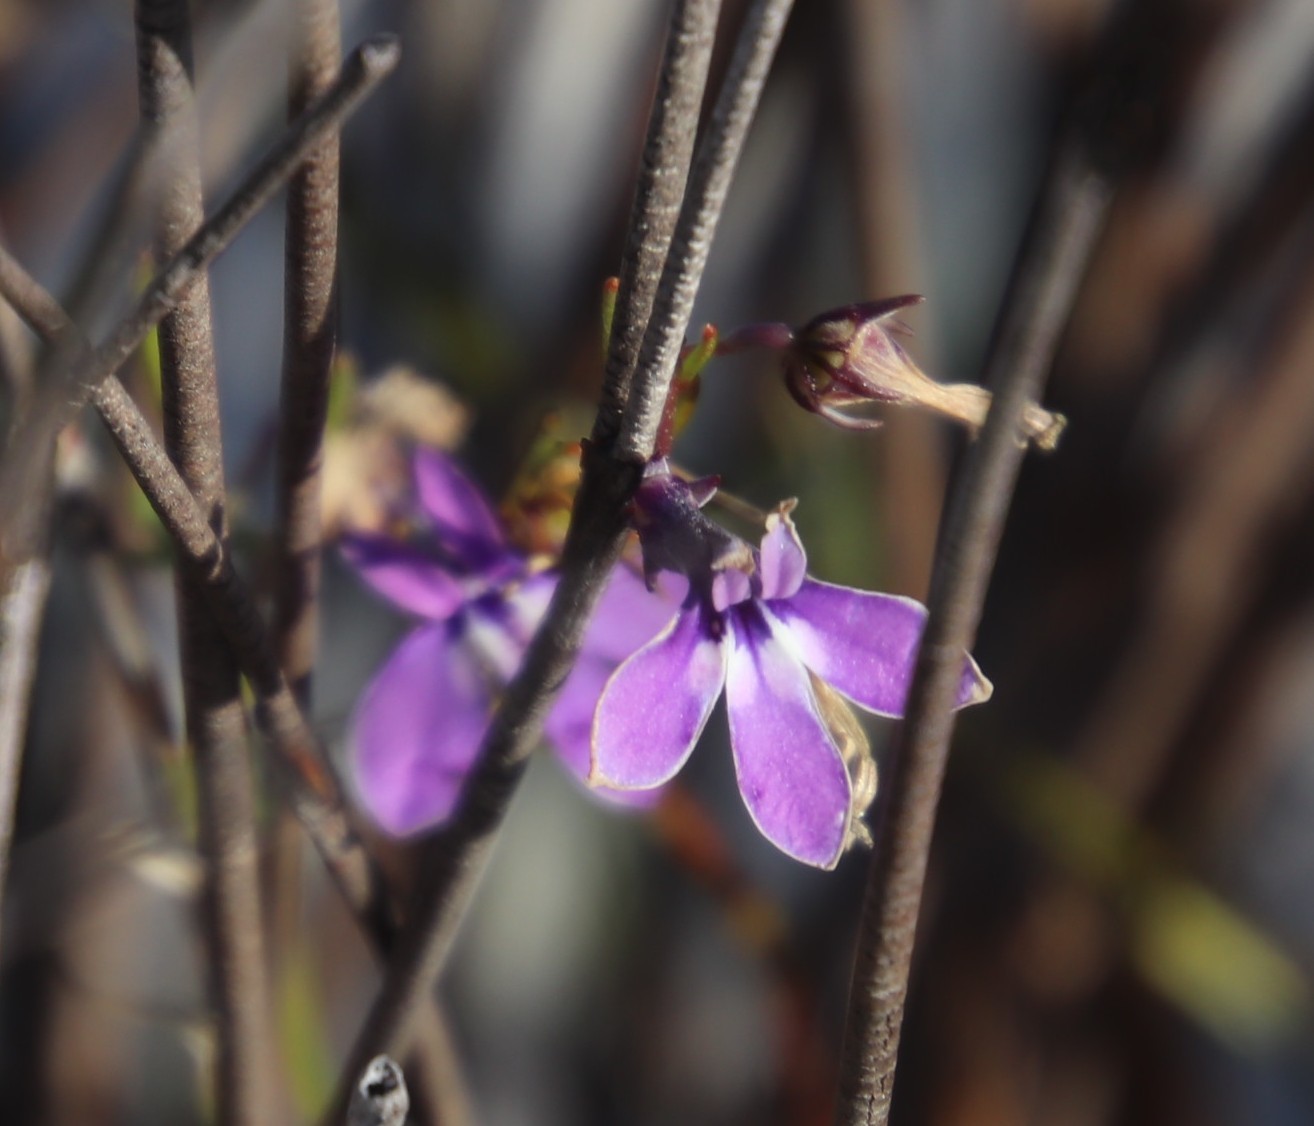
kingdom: Plantae
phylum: Tracheophyta
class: Magnoliopsida
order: Asterales
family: Campanulaceae
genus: Lobelia
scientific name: Lobelia setacea
